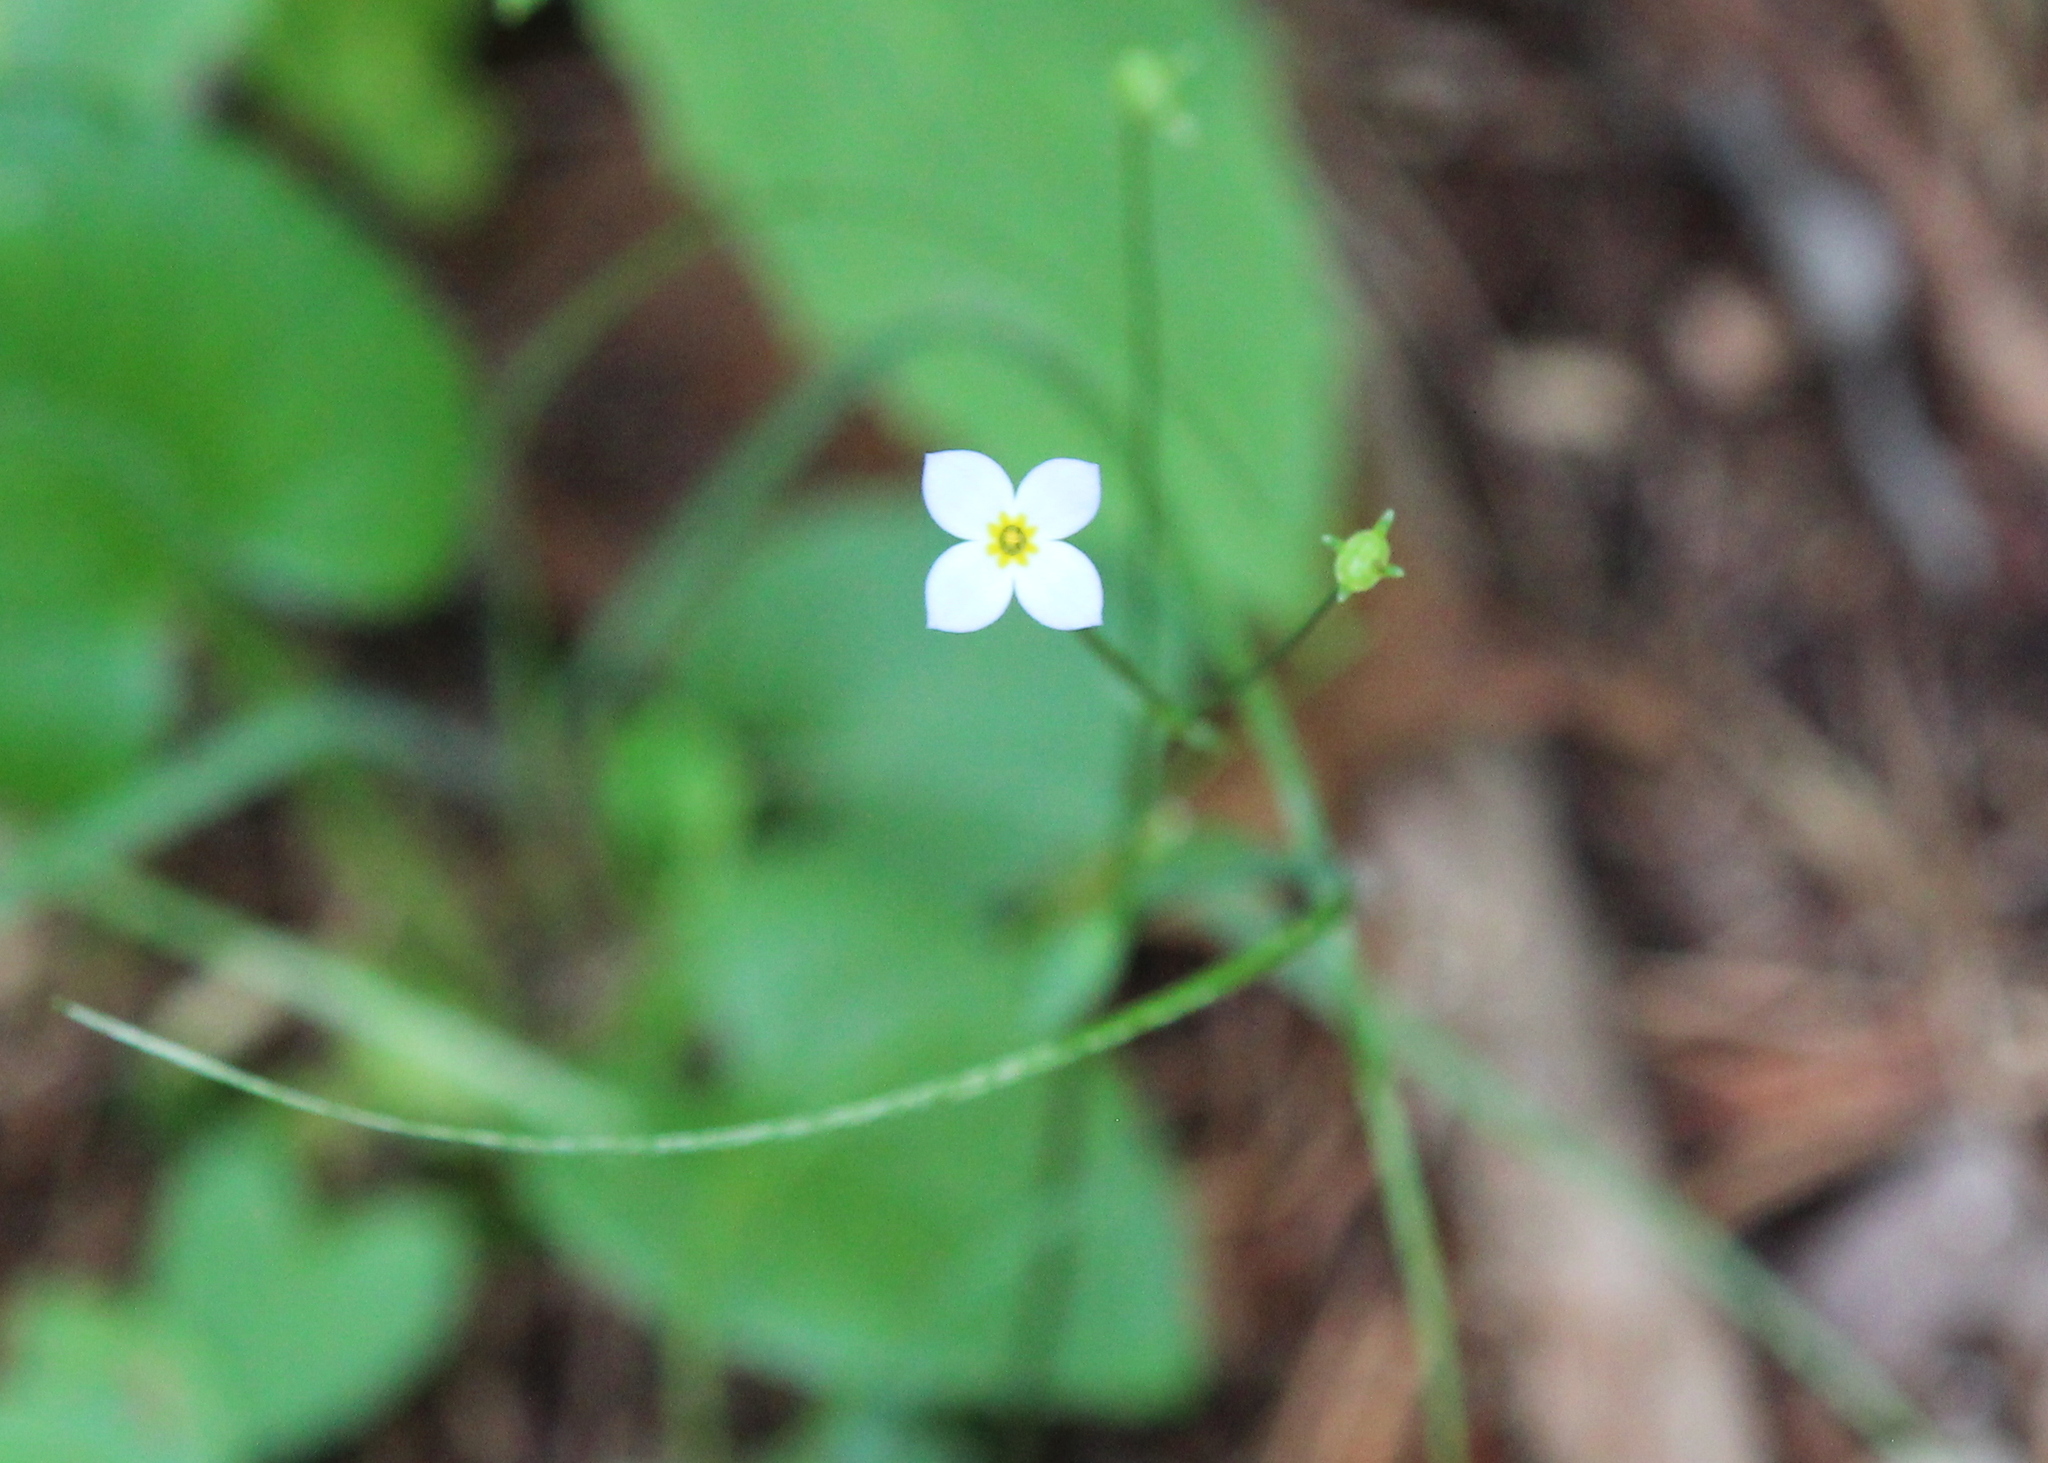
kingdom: Plantae
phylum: Tracheophyta
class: Magnoliopsida
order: Gentianales
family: Rubiaceae
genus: Houstonia
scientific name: Houstonia caerulea
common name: Bluets
